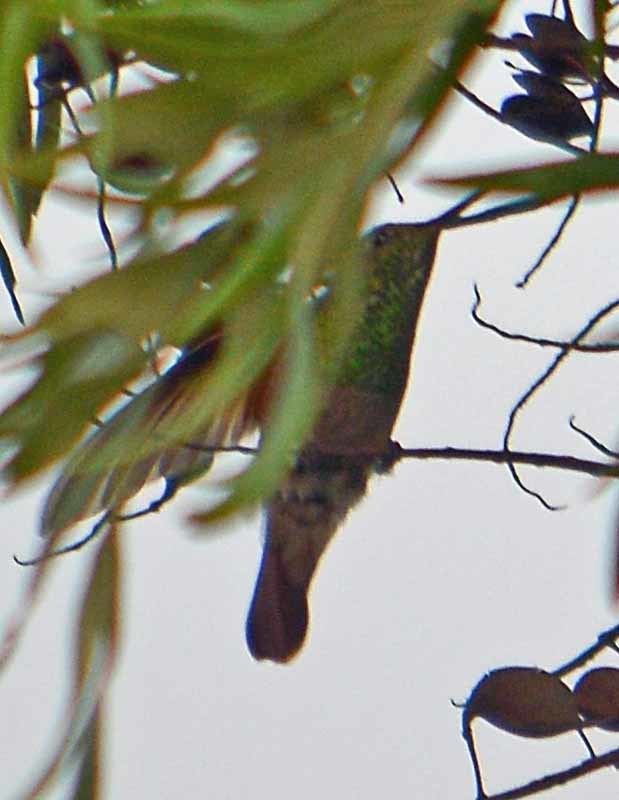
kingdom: Animalia
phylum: Chordata
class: Aves
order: Apodiformes
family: Trochilidae
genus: Saucerottia
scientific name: Saucerottia beryllina
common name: Berylline hummingbird
